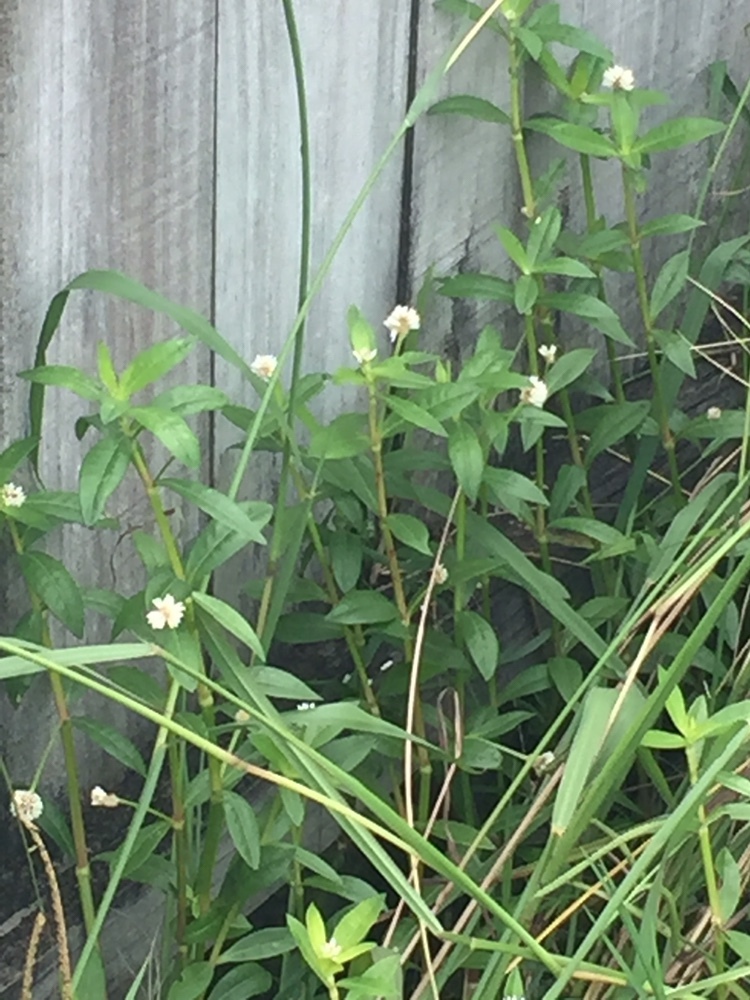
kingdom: Plantae
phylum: Tracheophyta
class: Magnoliopsida
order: Caryophyllales
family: Amaranthaceae
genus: Alternanthera
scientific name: Alternanthera philoxeroides
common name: Alligatorweed
